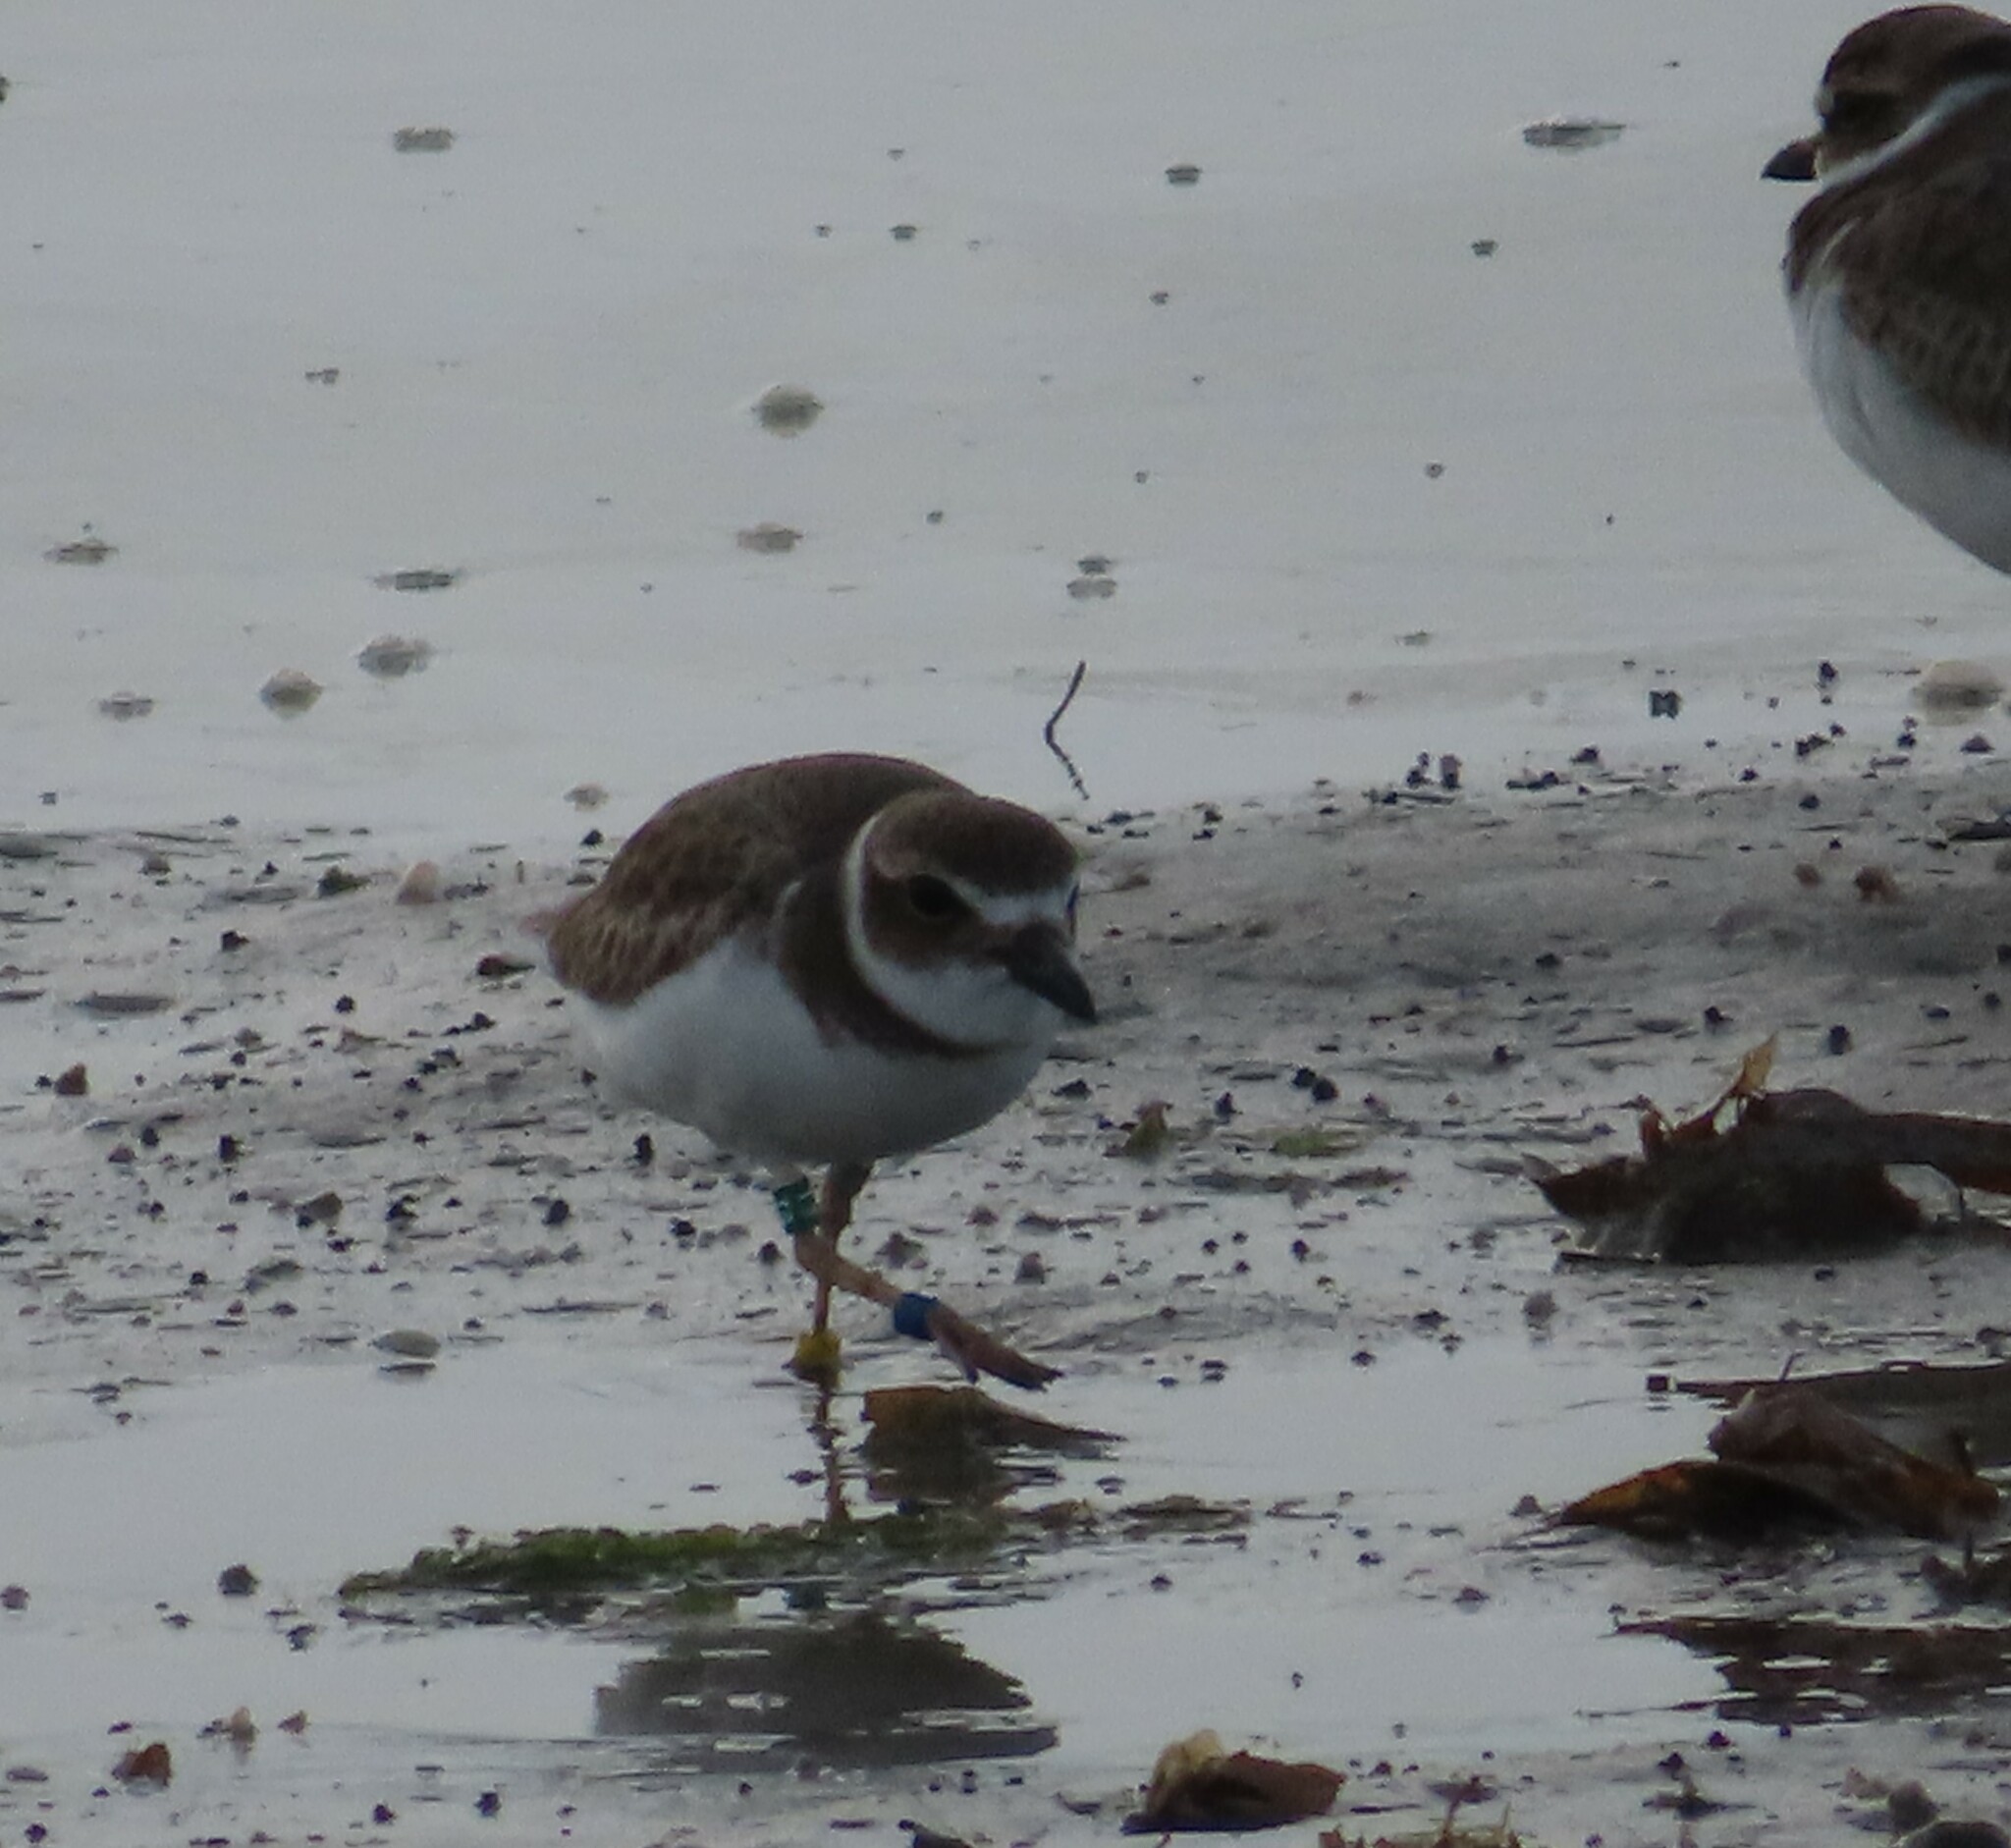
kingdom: Animalia
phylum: Chordata
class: Aves
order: Charadriiformes
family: Charadriidae
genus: Anarhynchus
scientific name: Anarhynchus
